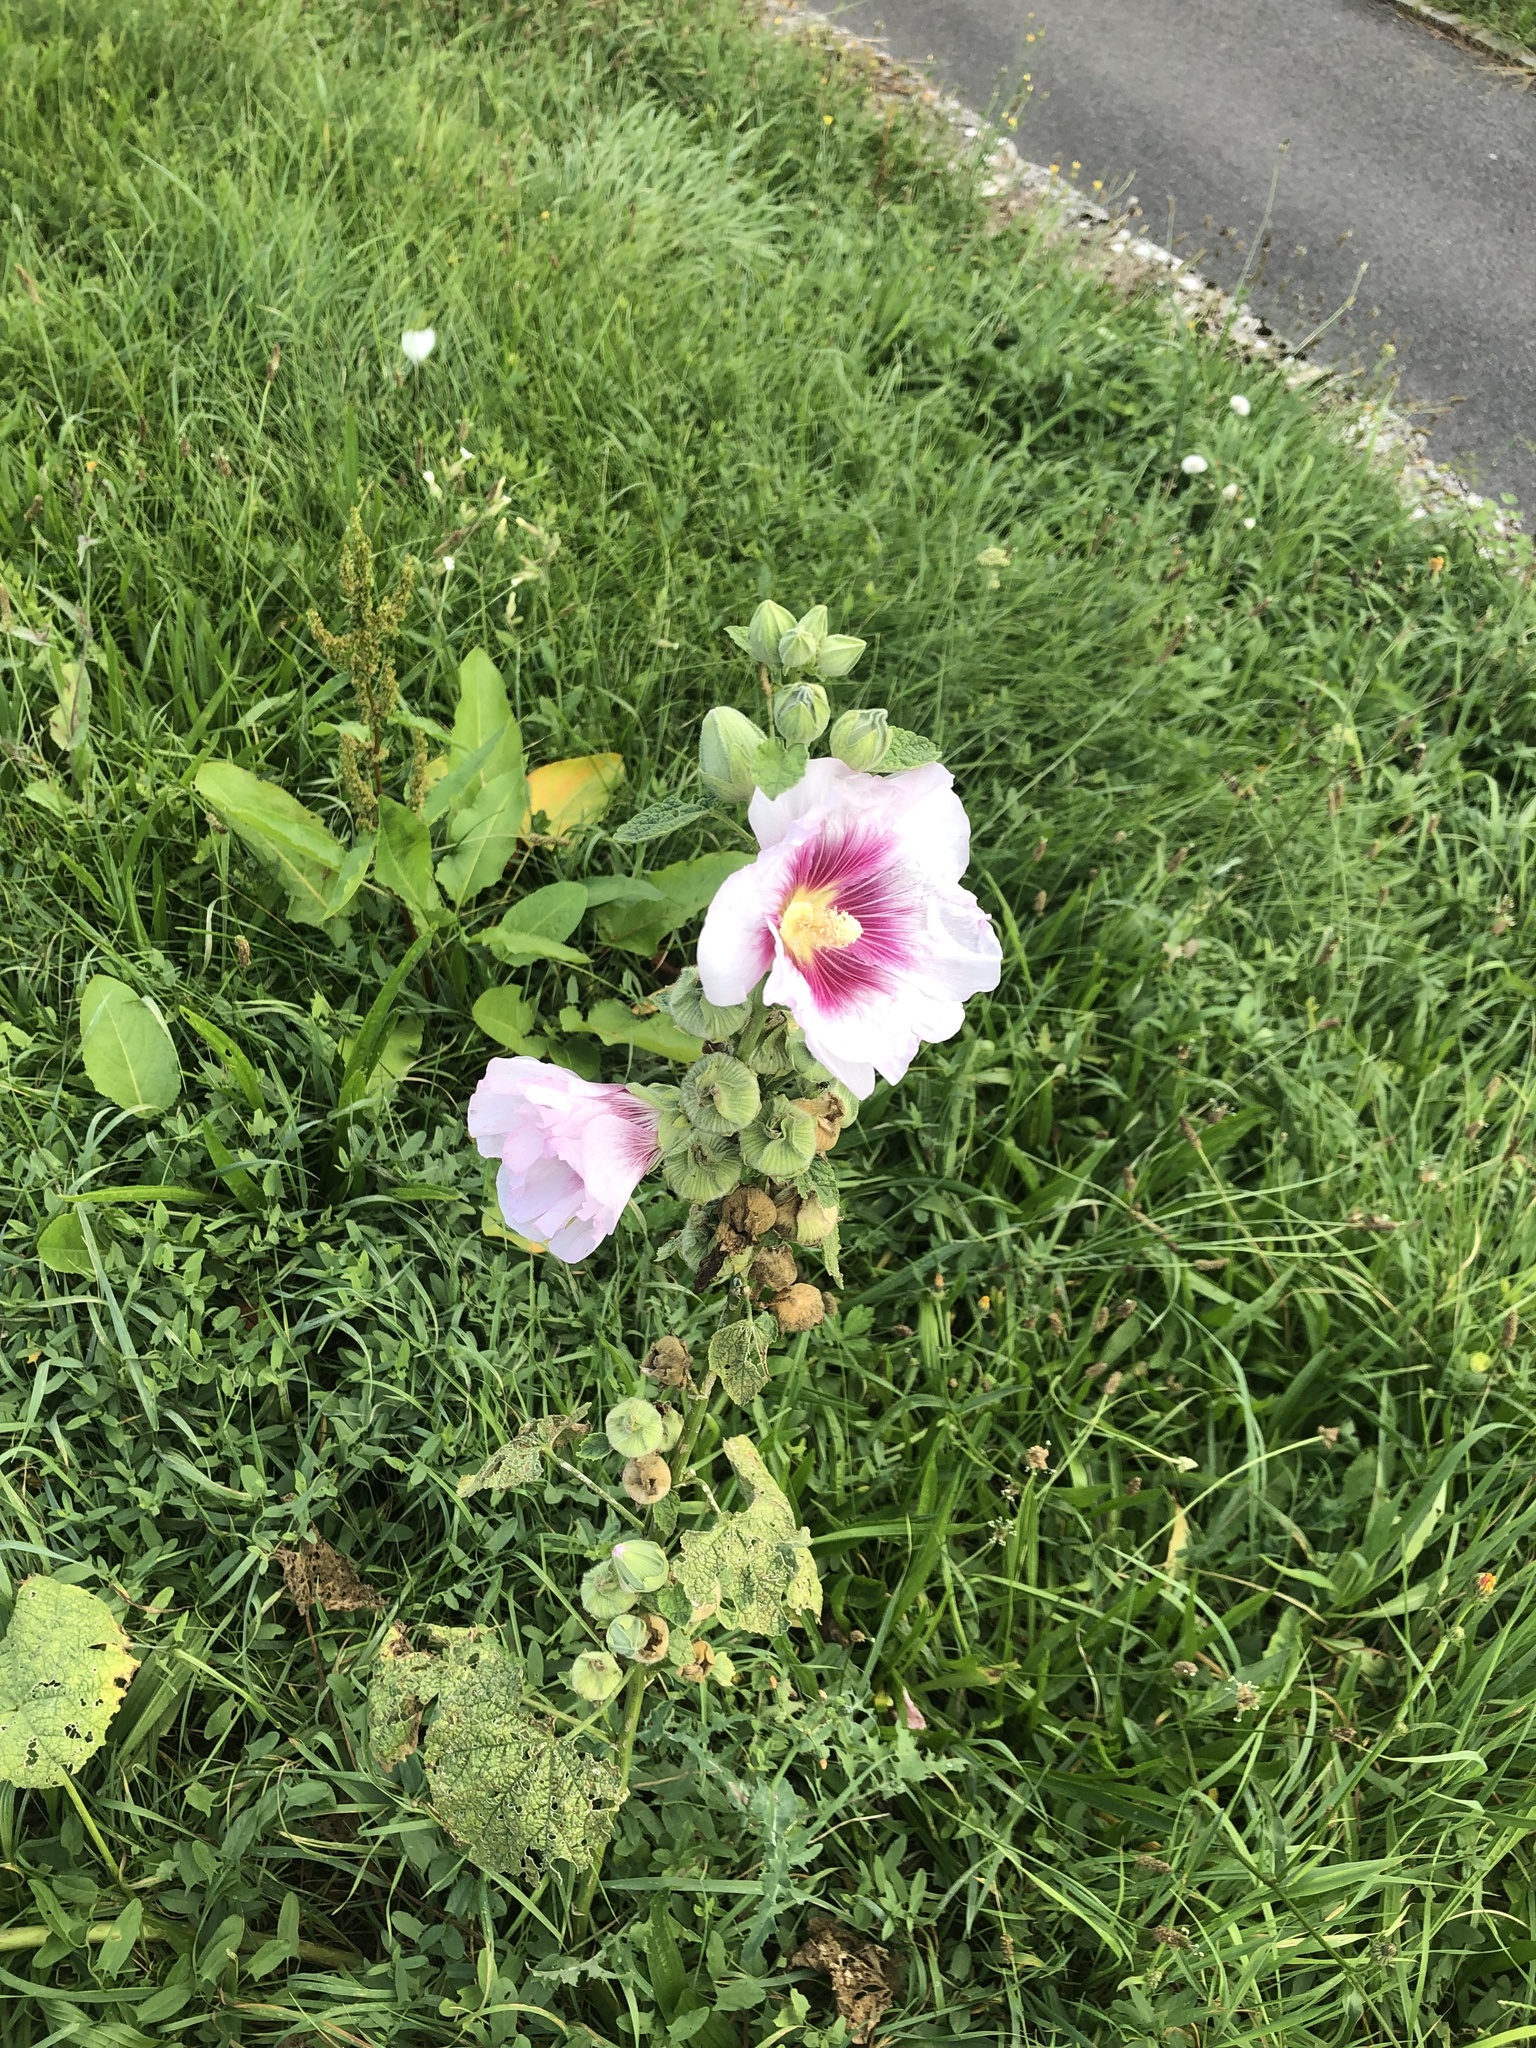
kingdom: Plantae
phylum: Tracheophyta
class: Magnoliopsida
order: Malvales
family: Malvaceae
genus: Alcea
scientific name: Alcea rosea
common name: Hollyhock
